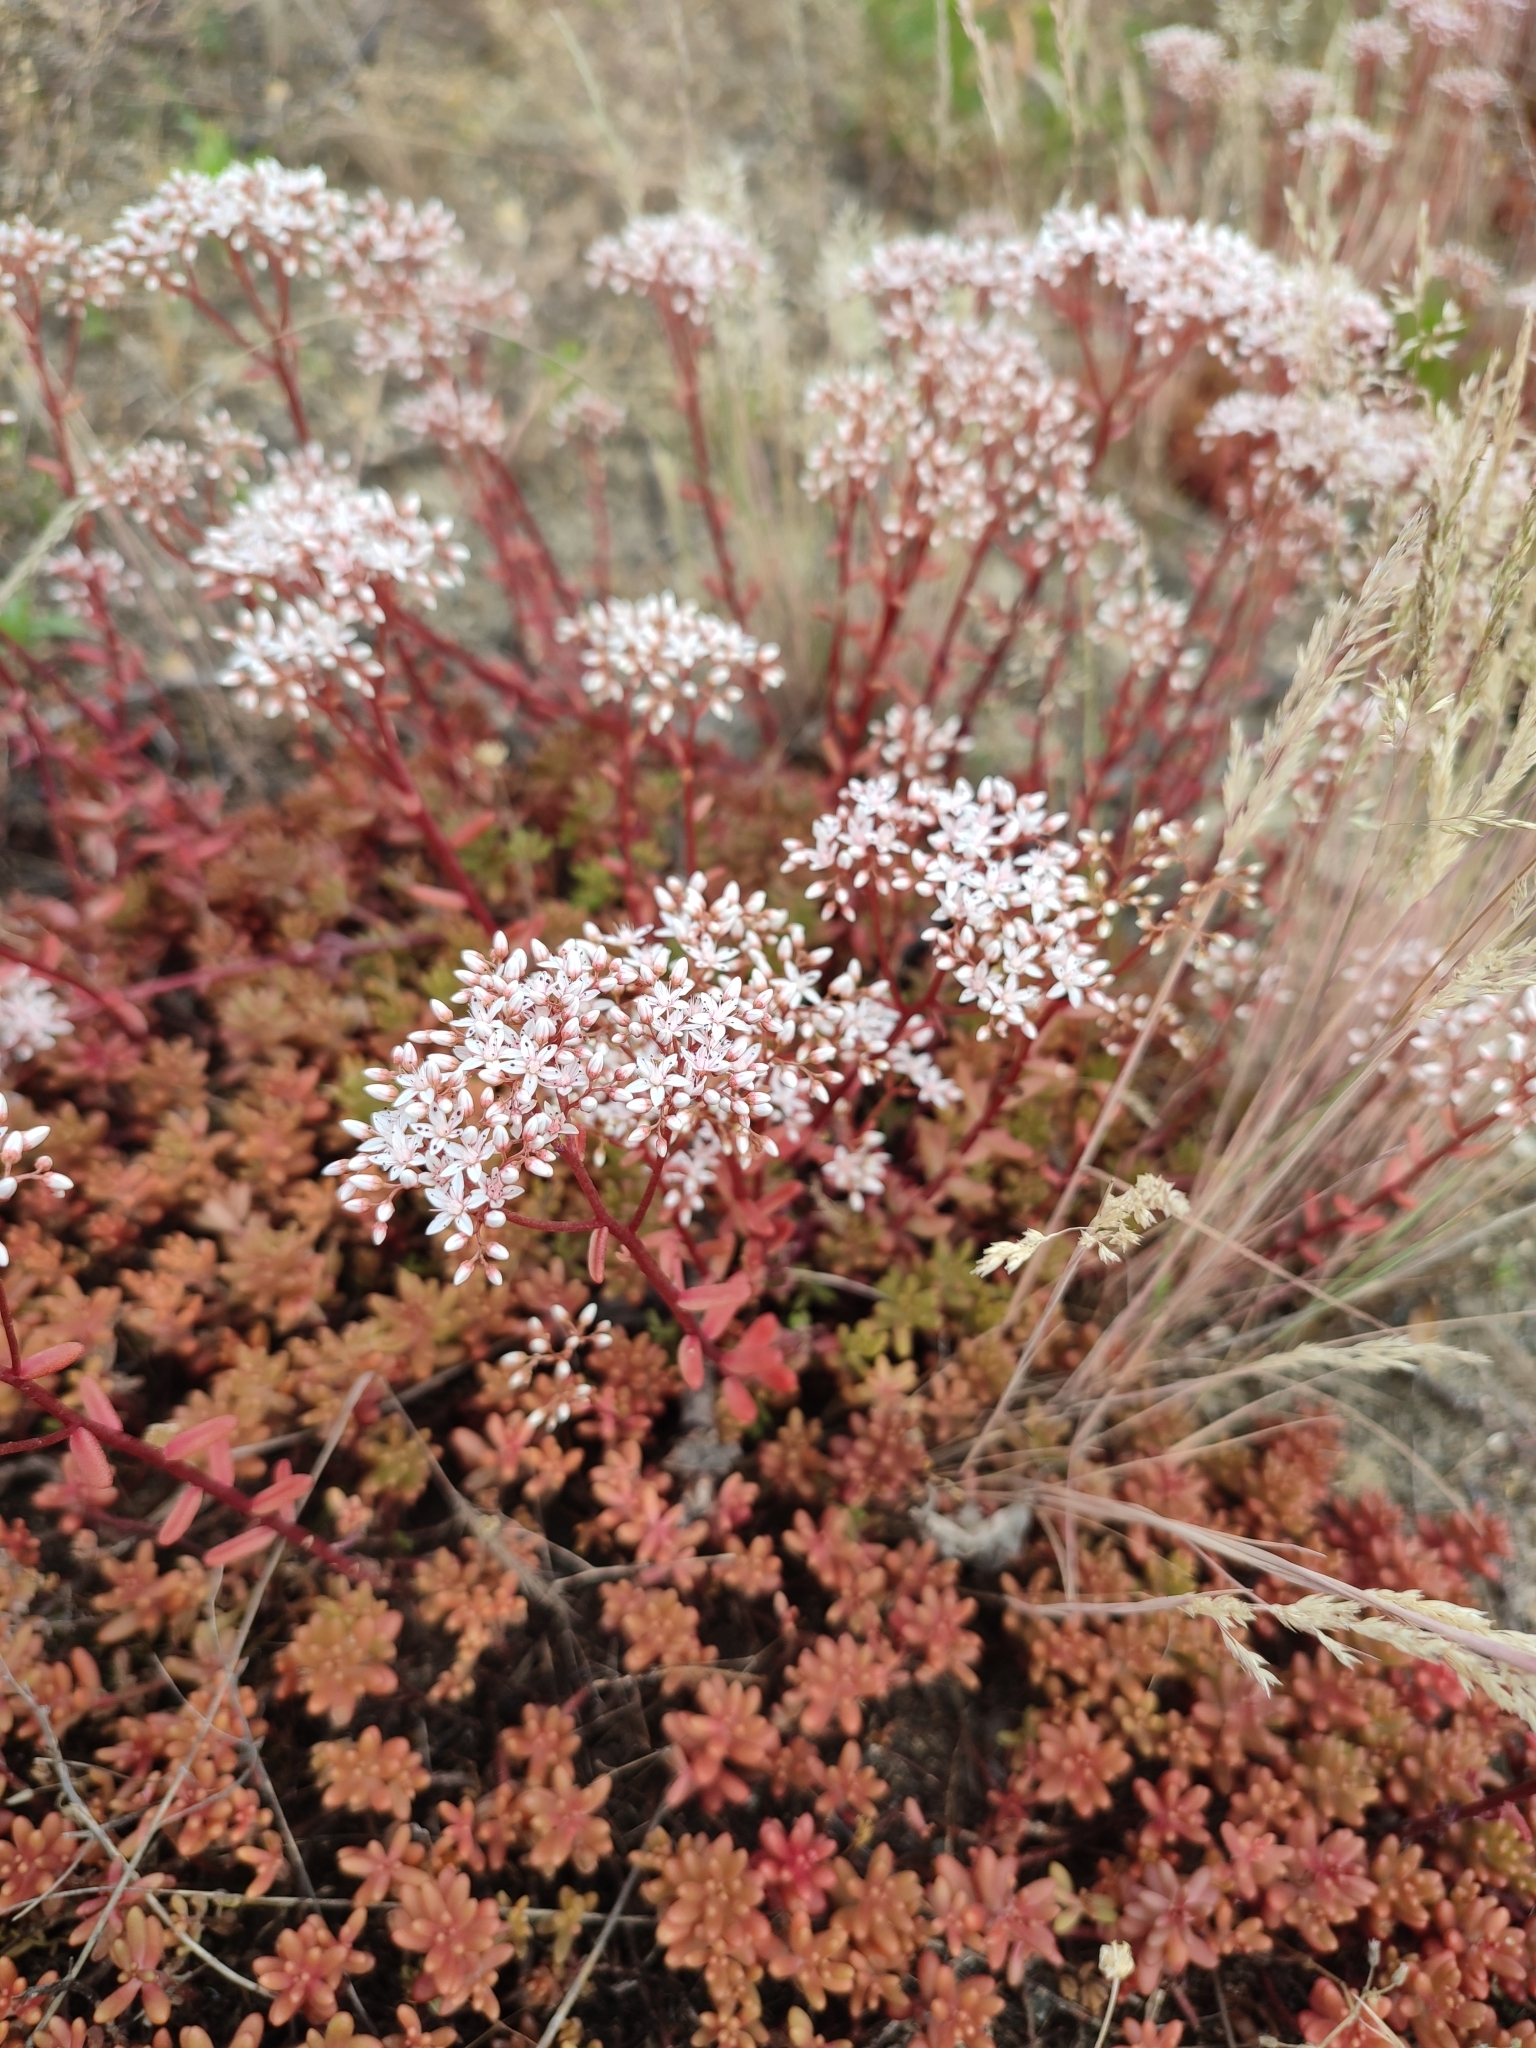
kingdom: Plantae
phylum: Tracheophyta
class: Magnoliopsida
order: Saxifragales
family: Crassulaceae
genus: Sedum
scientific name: Sedum album
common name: White stonecrop
